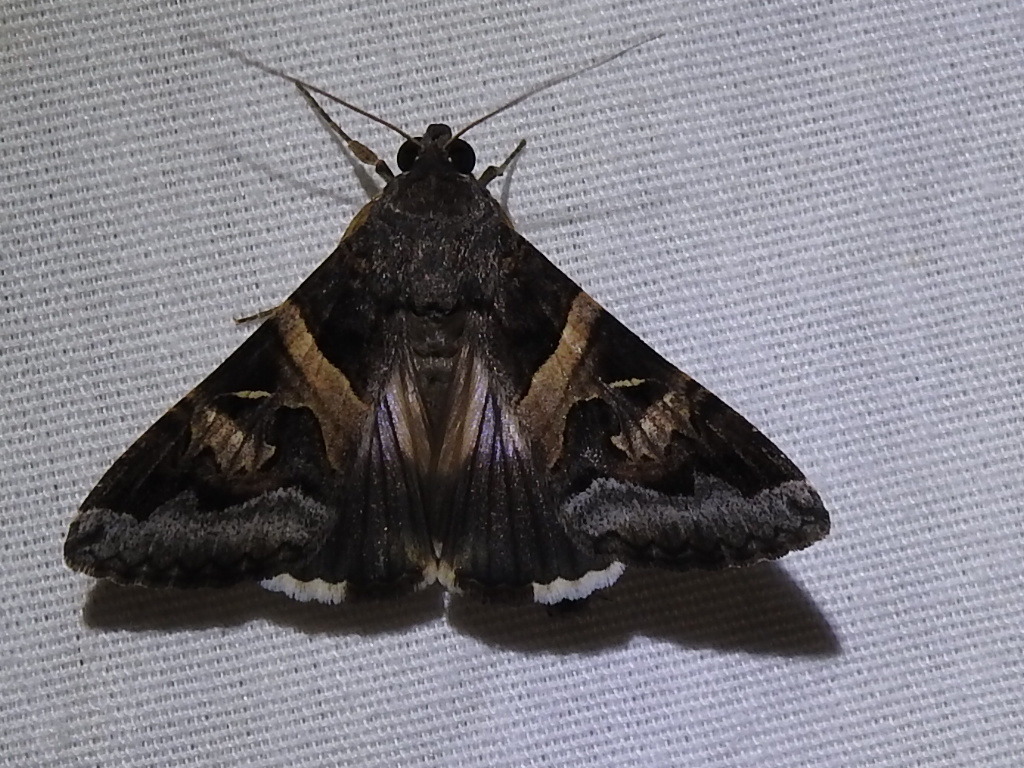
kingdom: Animalia
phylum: Arthropoda
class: Insecta
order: Lepidoptera
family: Erebidae
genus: Melipotis
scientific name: Melipotis indomita
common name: Moth
